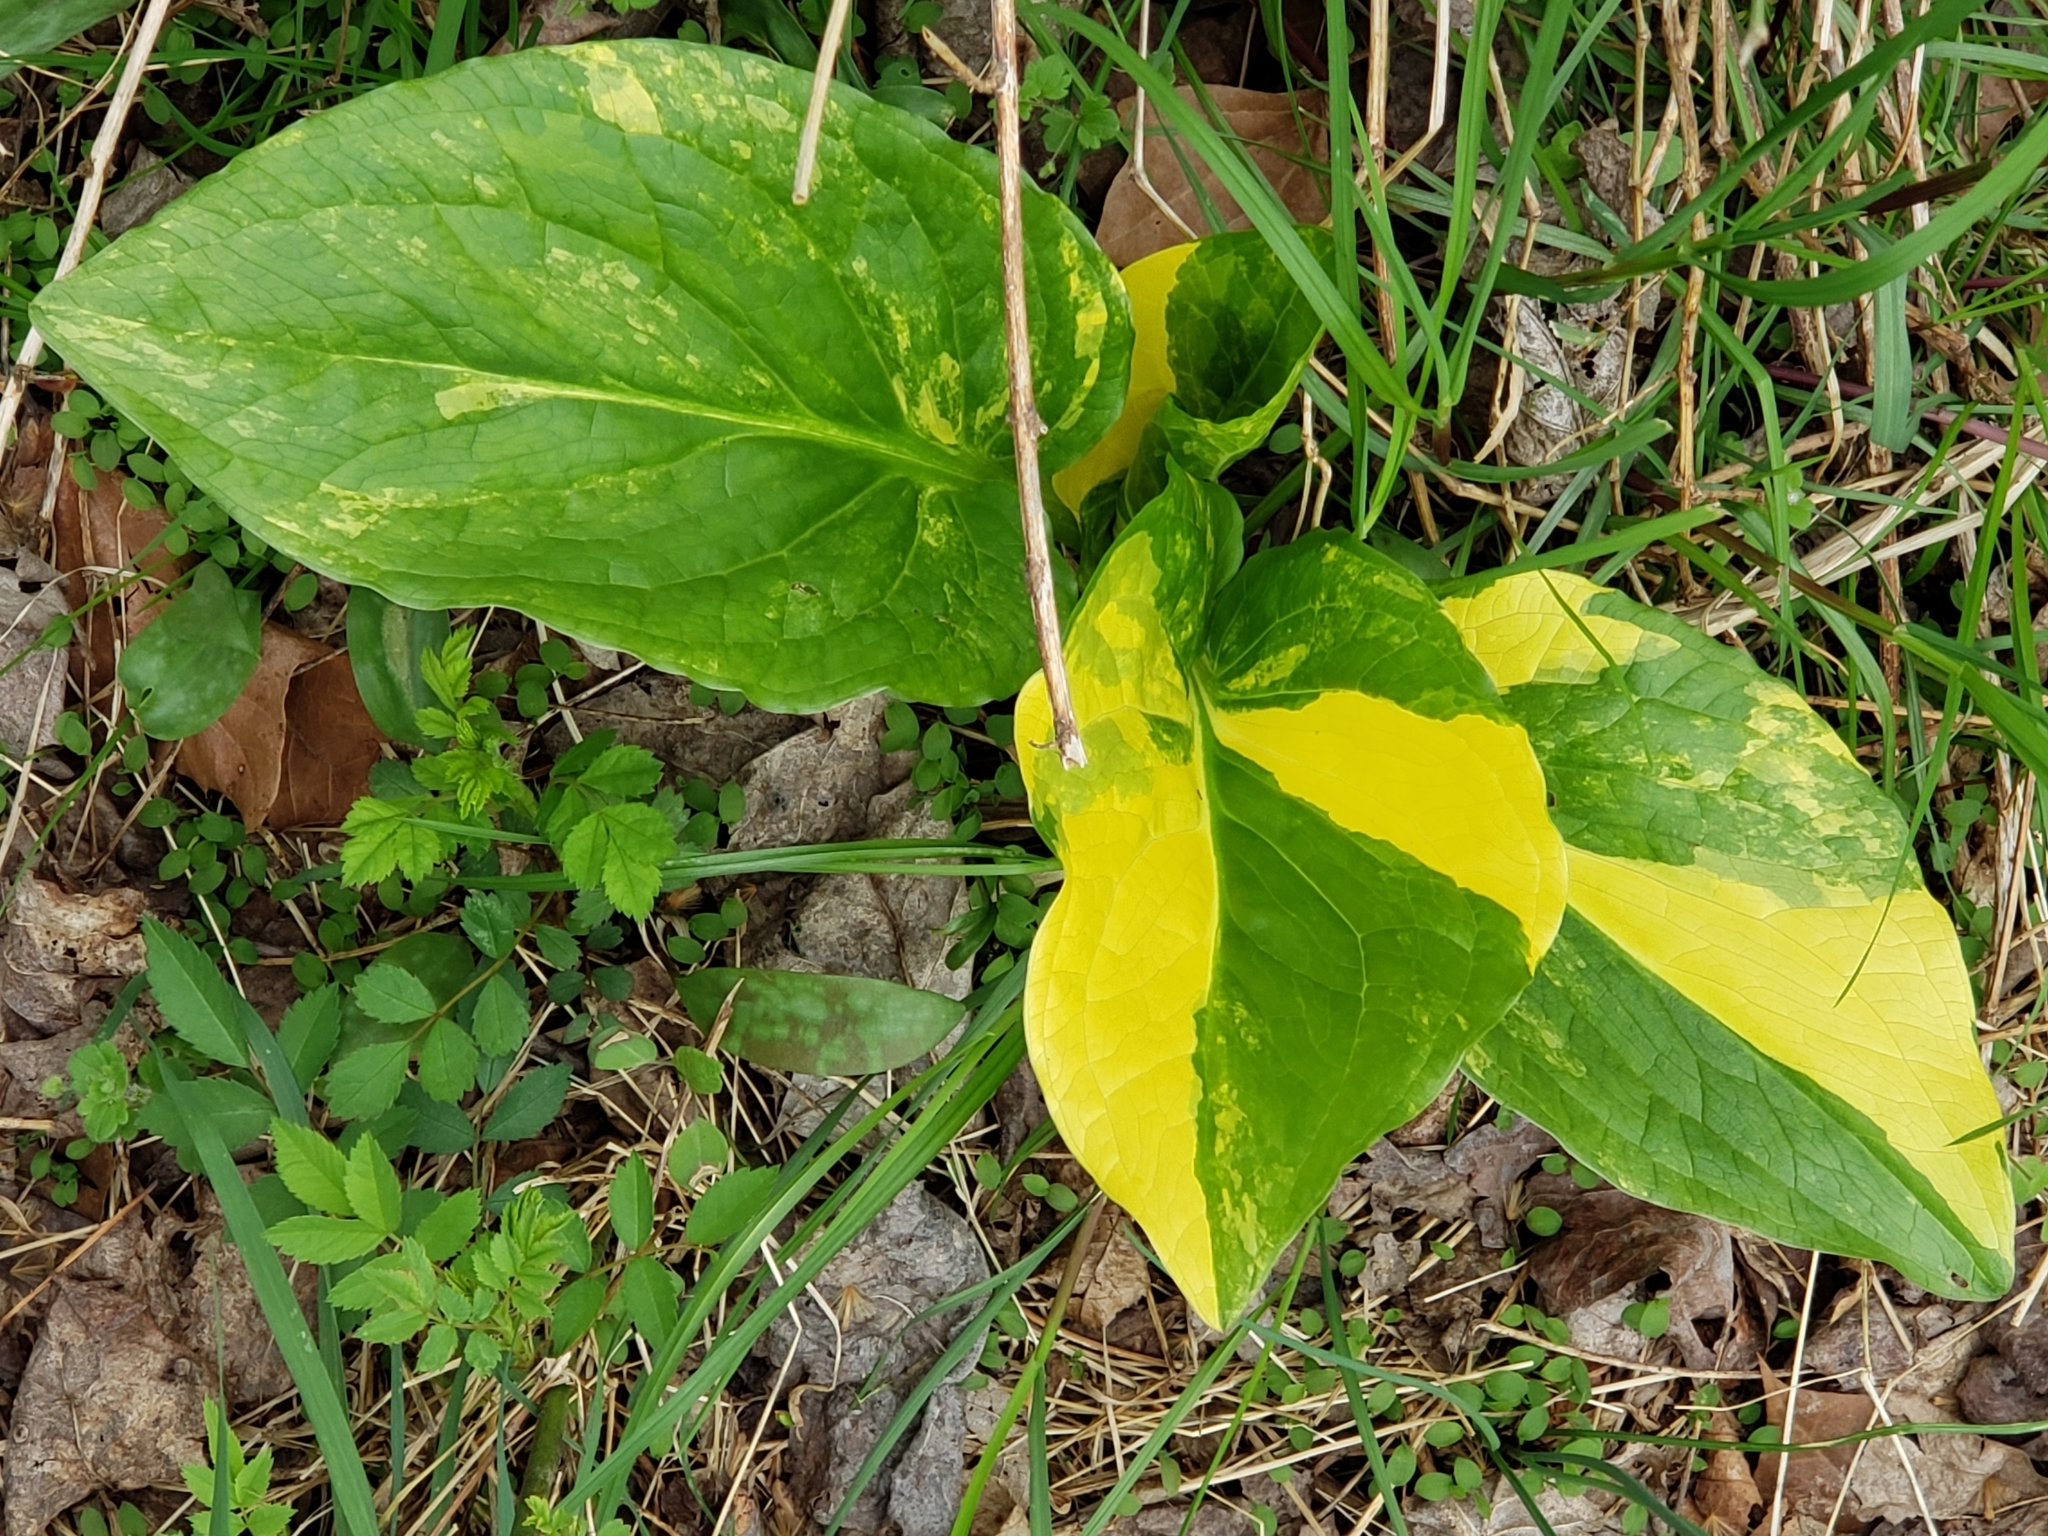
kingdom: Plantae
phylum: Tracheophyta
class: Liliopsida
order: Alismatales
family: Araceae
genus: Symplocarpus
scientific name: Symplocarpus foetidus
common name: Eastern skunk cabbage
